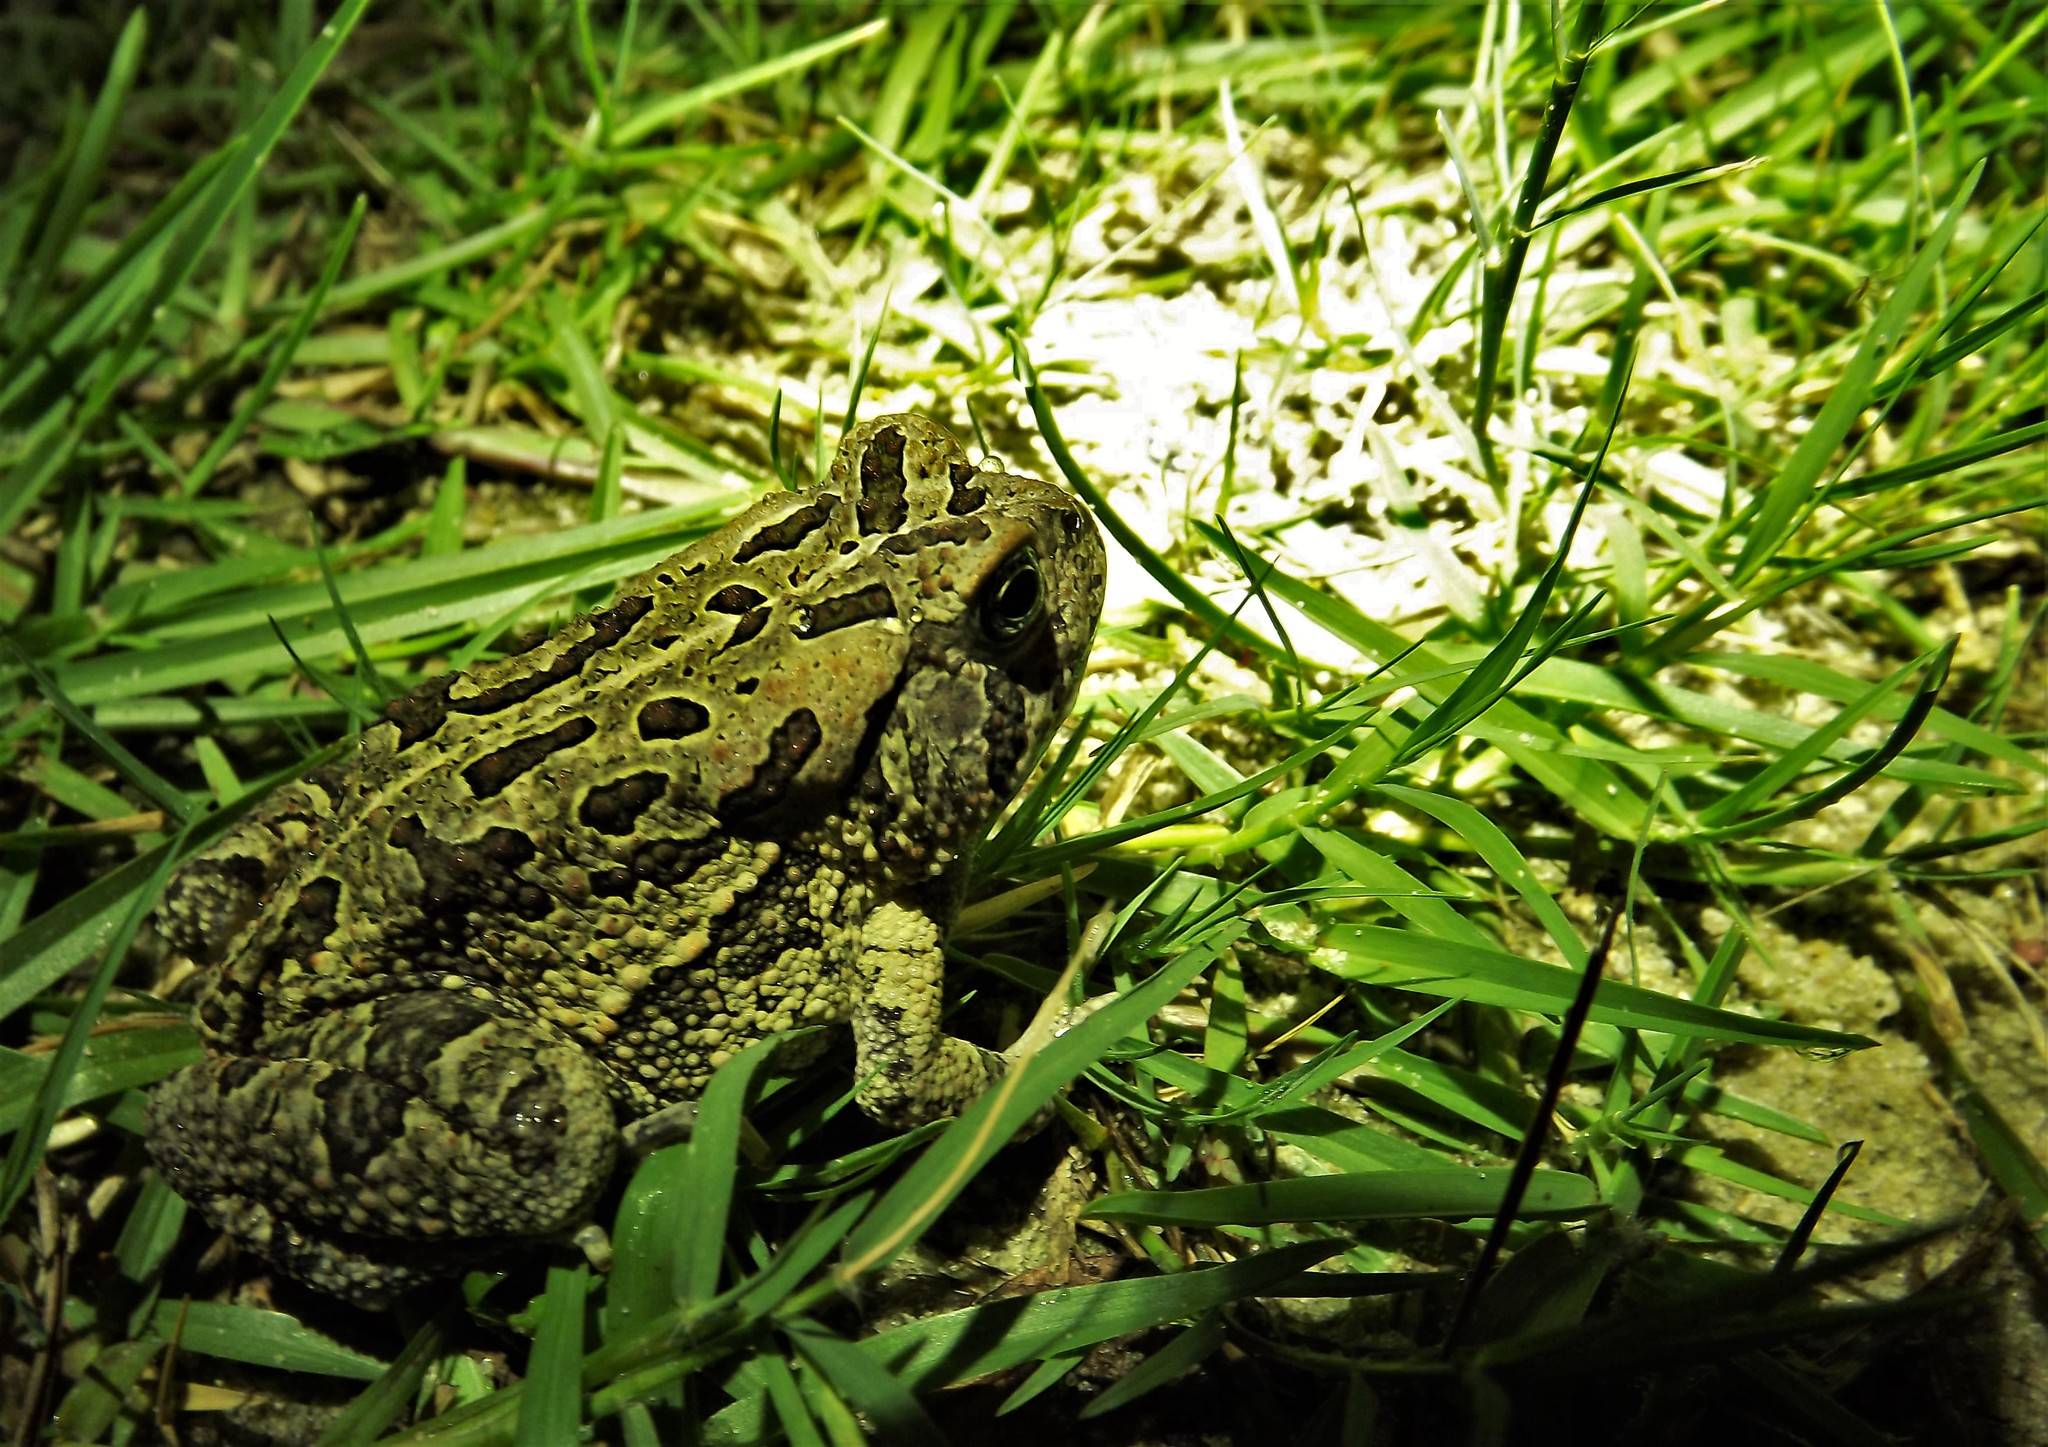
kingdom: Animalia
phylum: Chordata
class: Amphibia
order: Anura
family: Bufonidae
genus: Anaxyrus
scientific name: Anaxyrus fowleri
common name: Fowler's toad
